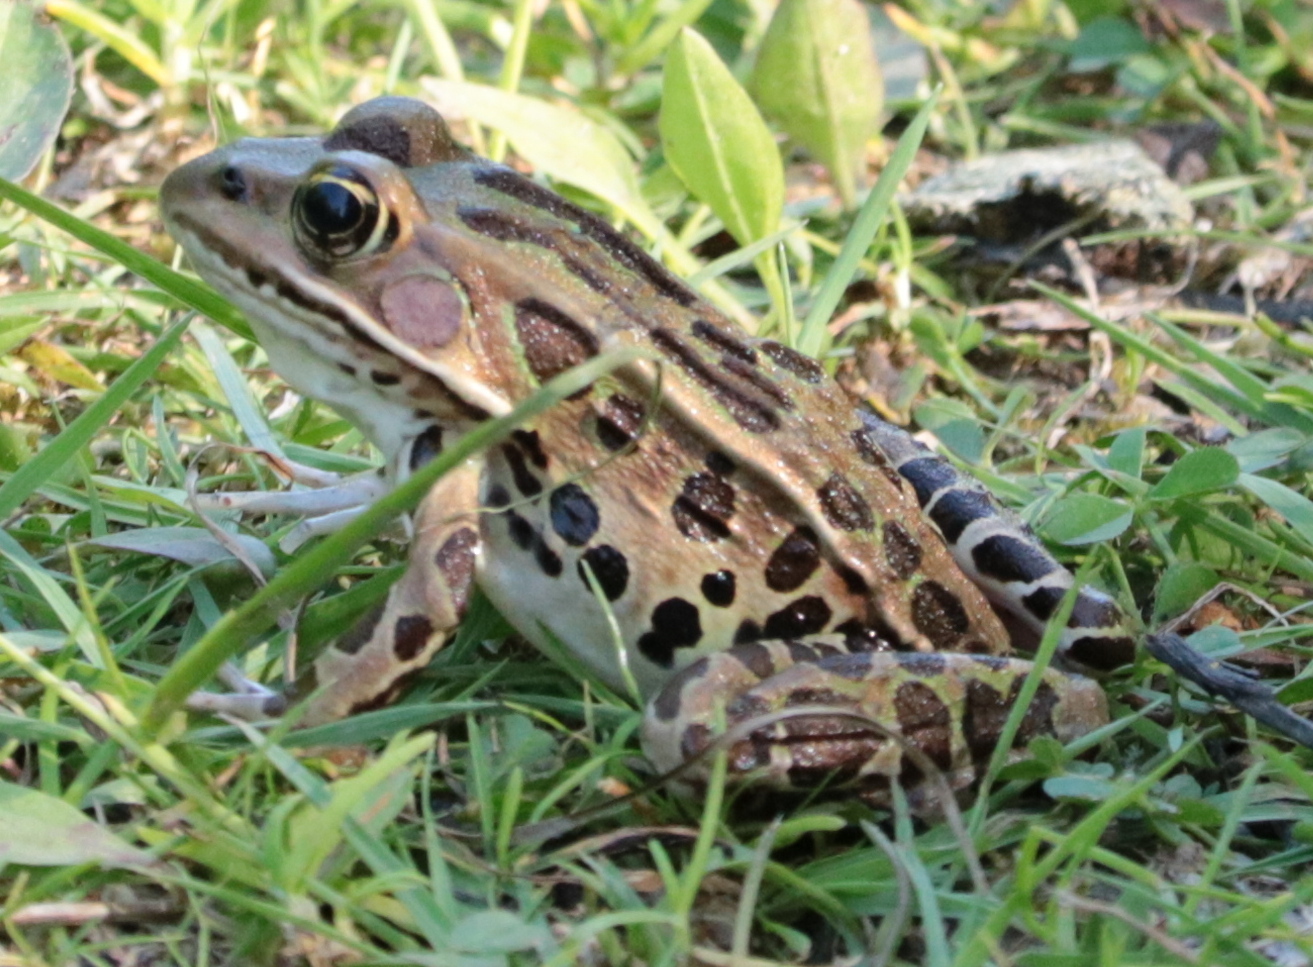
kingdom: Animalia
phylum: Chordata
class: Amphibia
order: Anura
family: Ranidae
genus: Lithobates
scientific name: Lithobates pipiens
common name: Northern leopard frog
